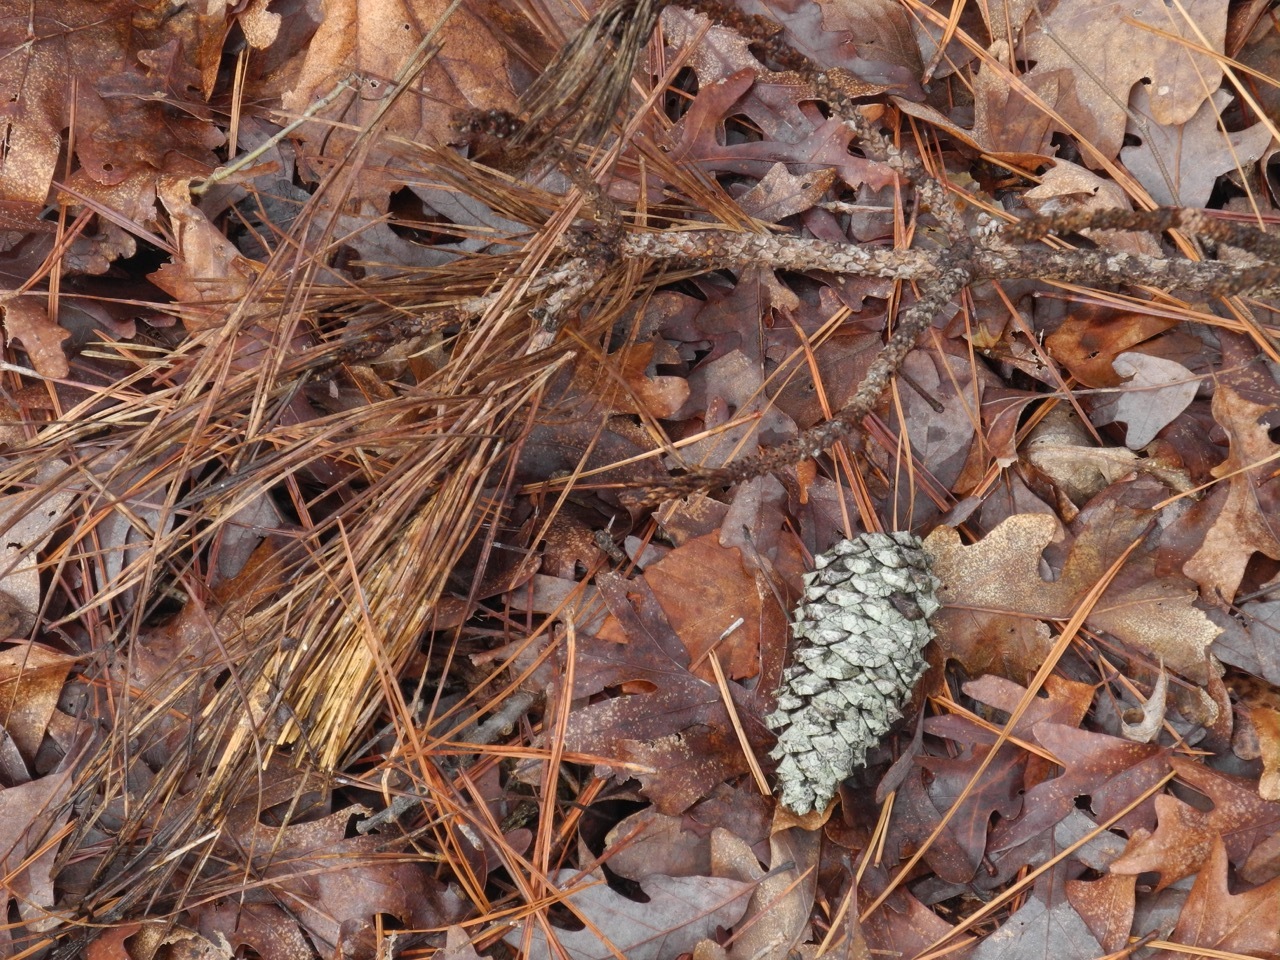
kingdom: Plantae
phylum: Tracheophyta
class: Pinopsida
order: Pinales
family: Pinaceae
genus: Pinus
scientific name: Pinus taeda
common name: Loblolly pine
